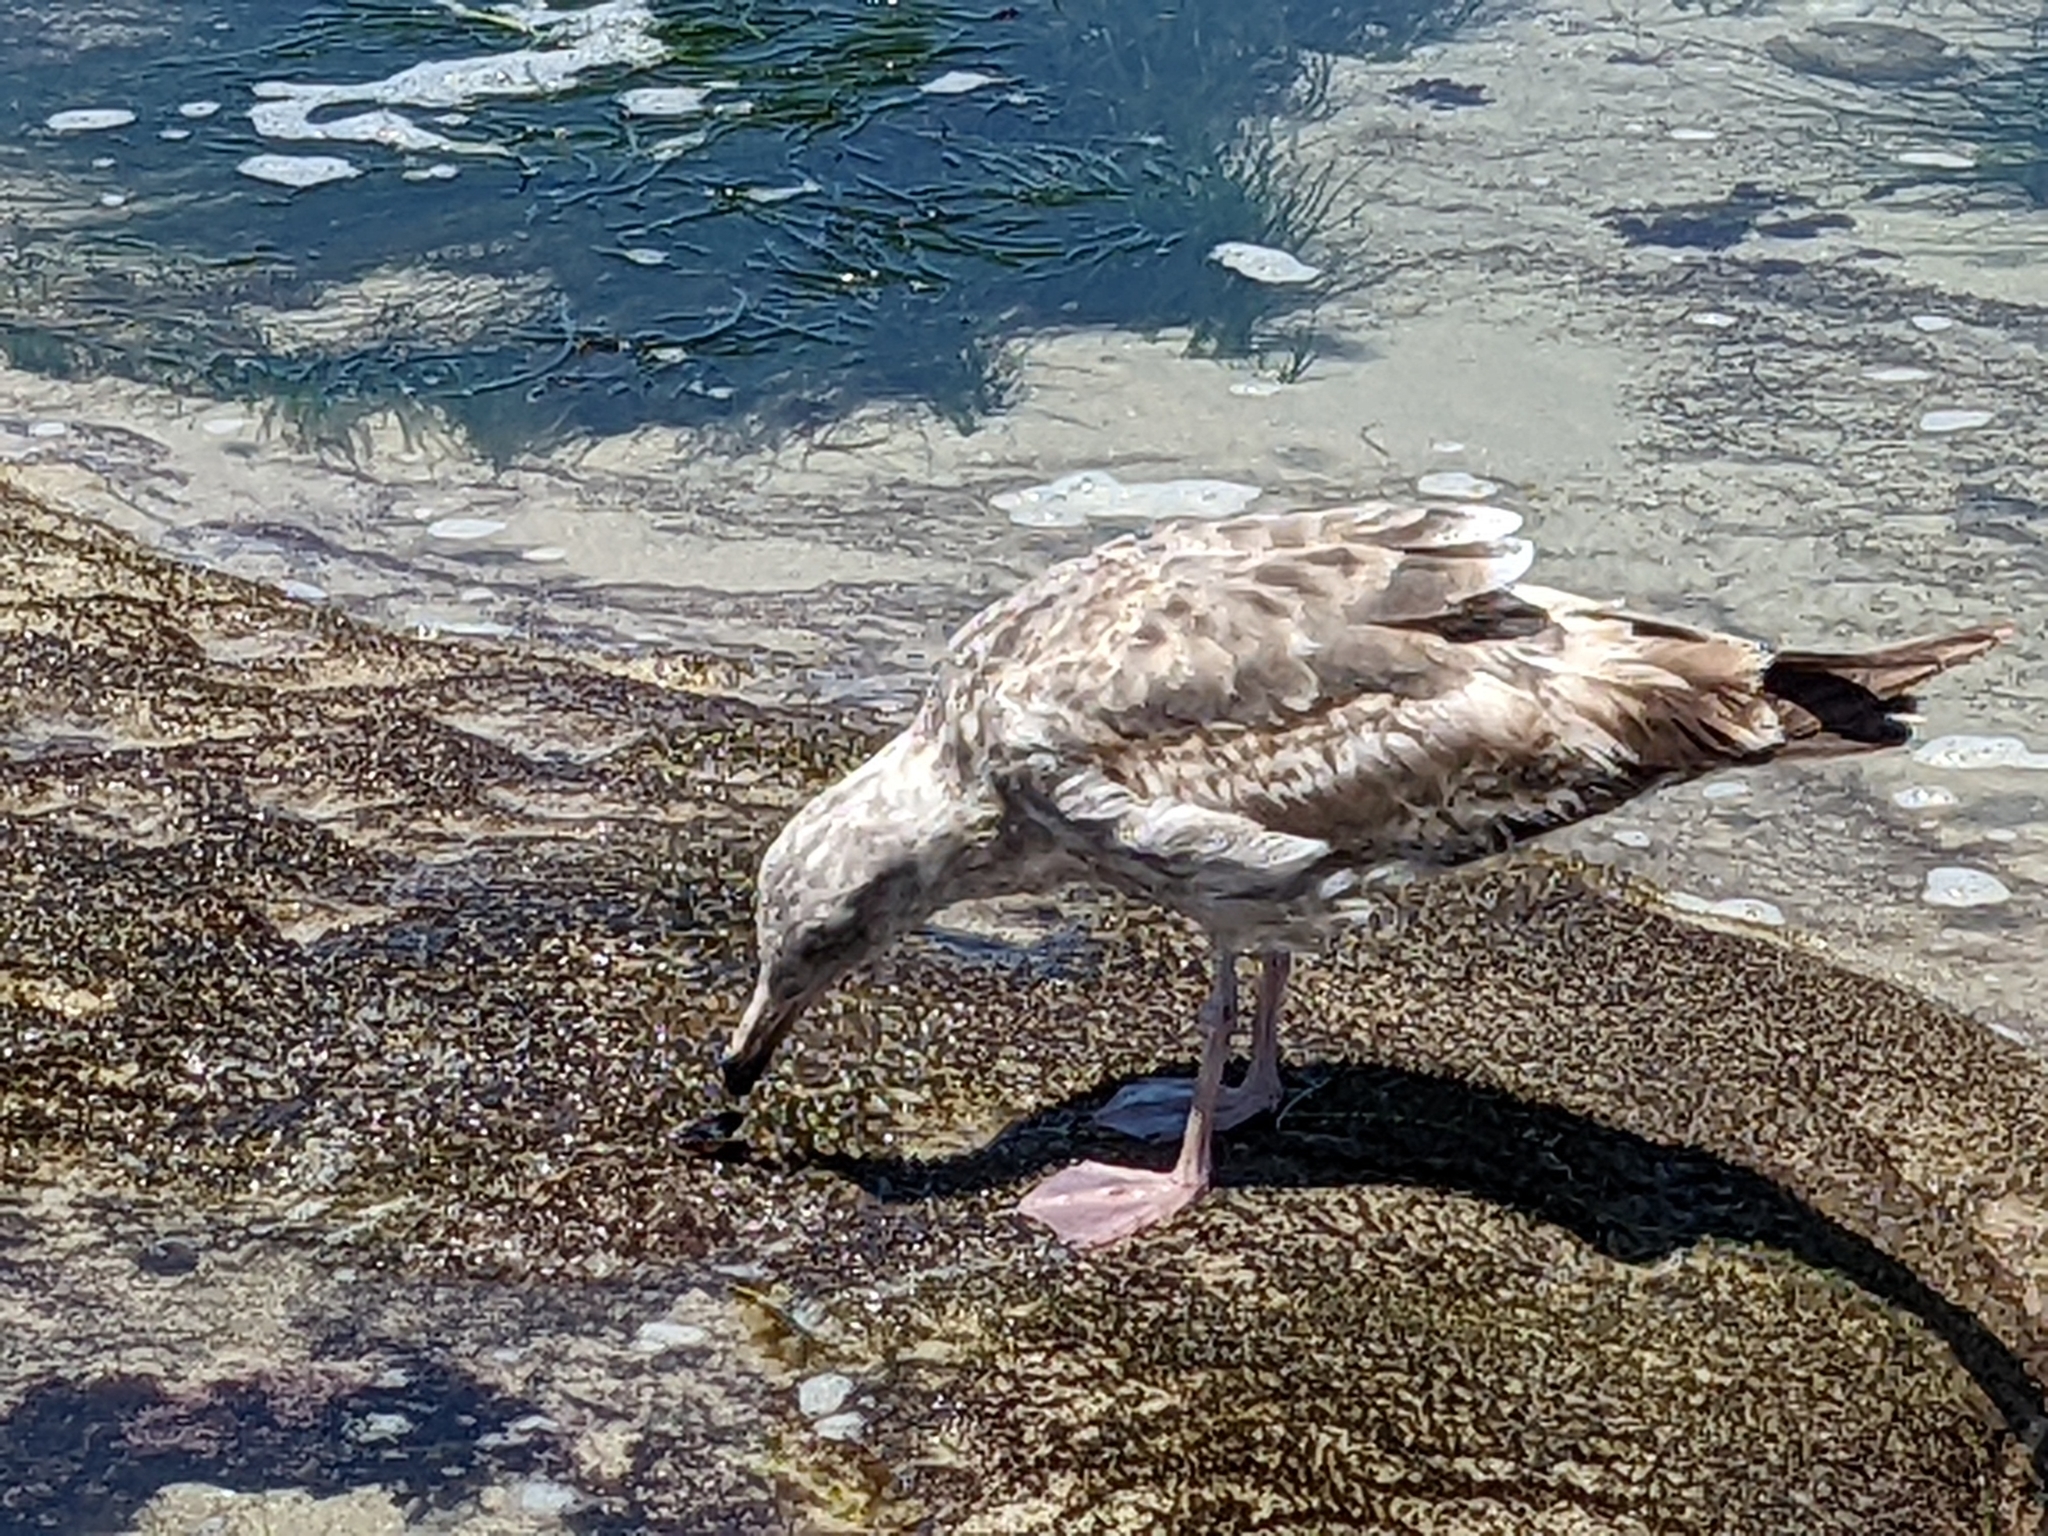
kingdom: Animalia
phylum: Chordata
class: Aves
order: Charadriiformes
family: Laridae
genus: Larus
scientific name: Larus occidentalis
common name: Western gull
